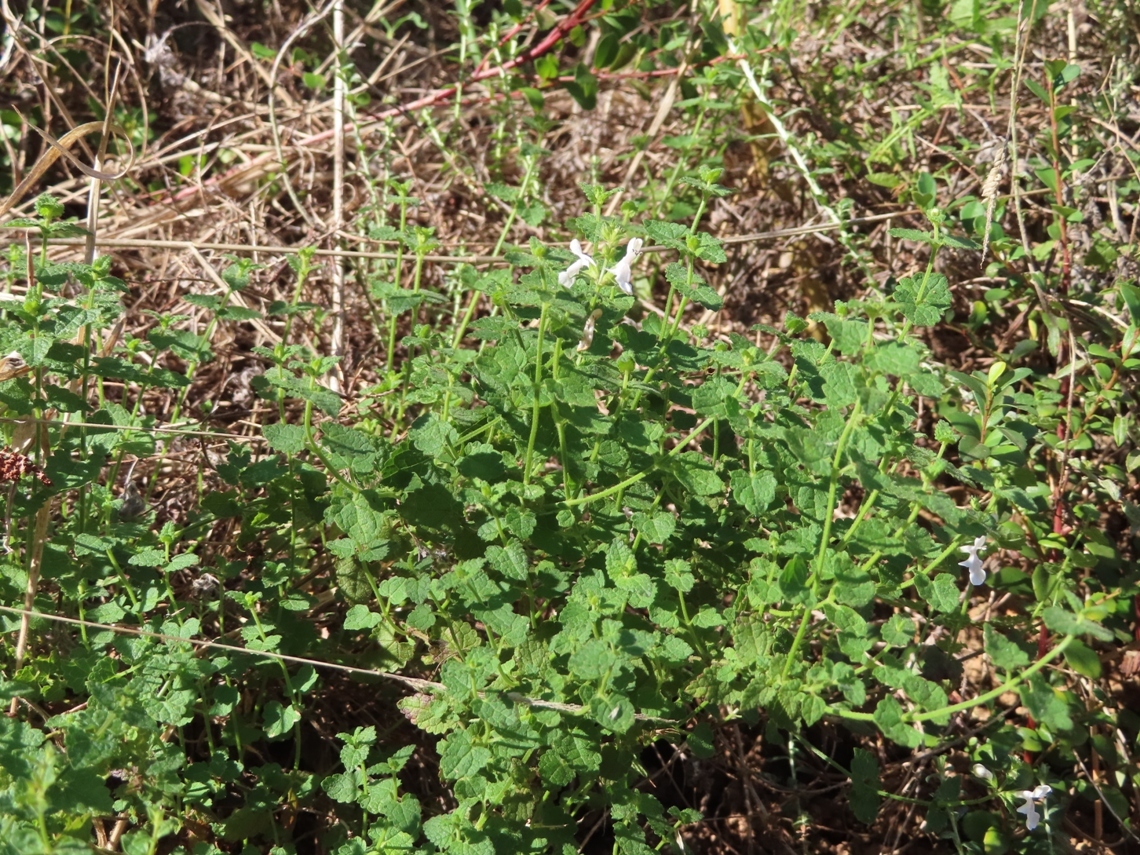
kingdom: Plantae
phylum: Tracheophyta
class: Magnoliopsida
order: Lamiales
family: Lamiaceae
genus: Stachys
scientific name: Stachys aethiopica
